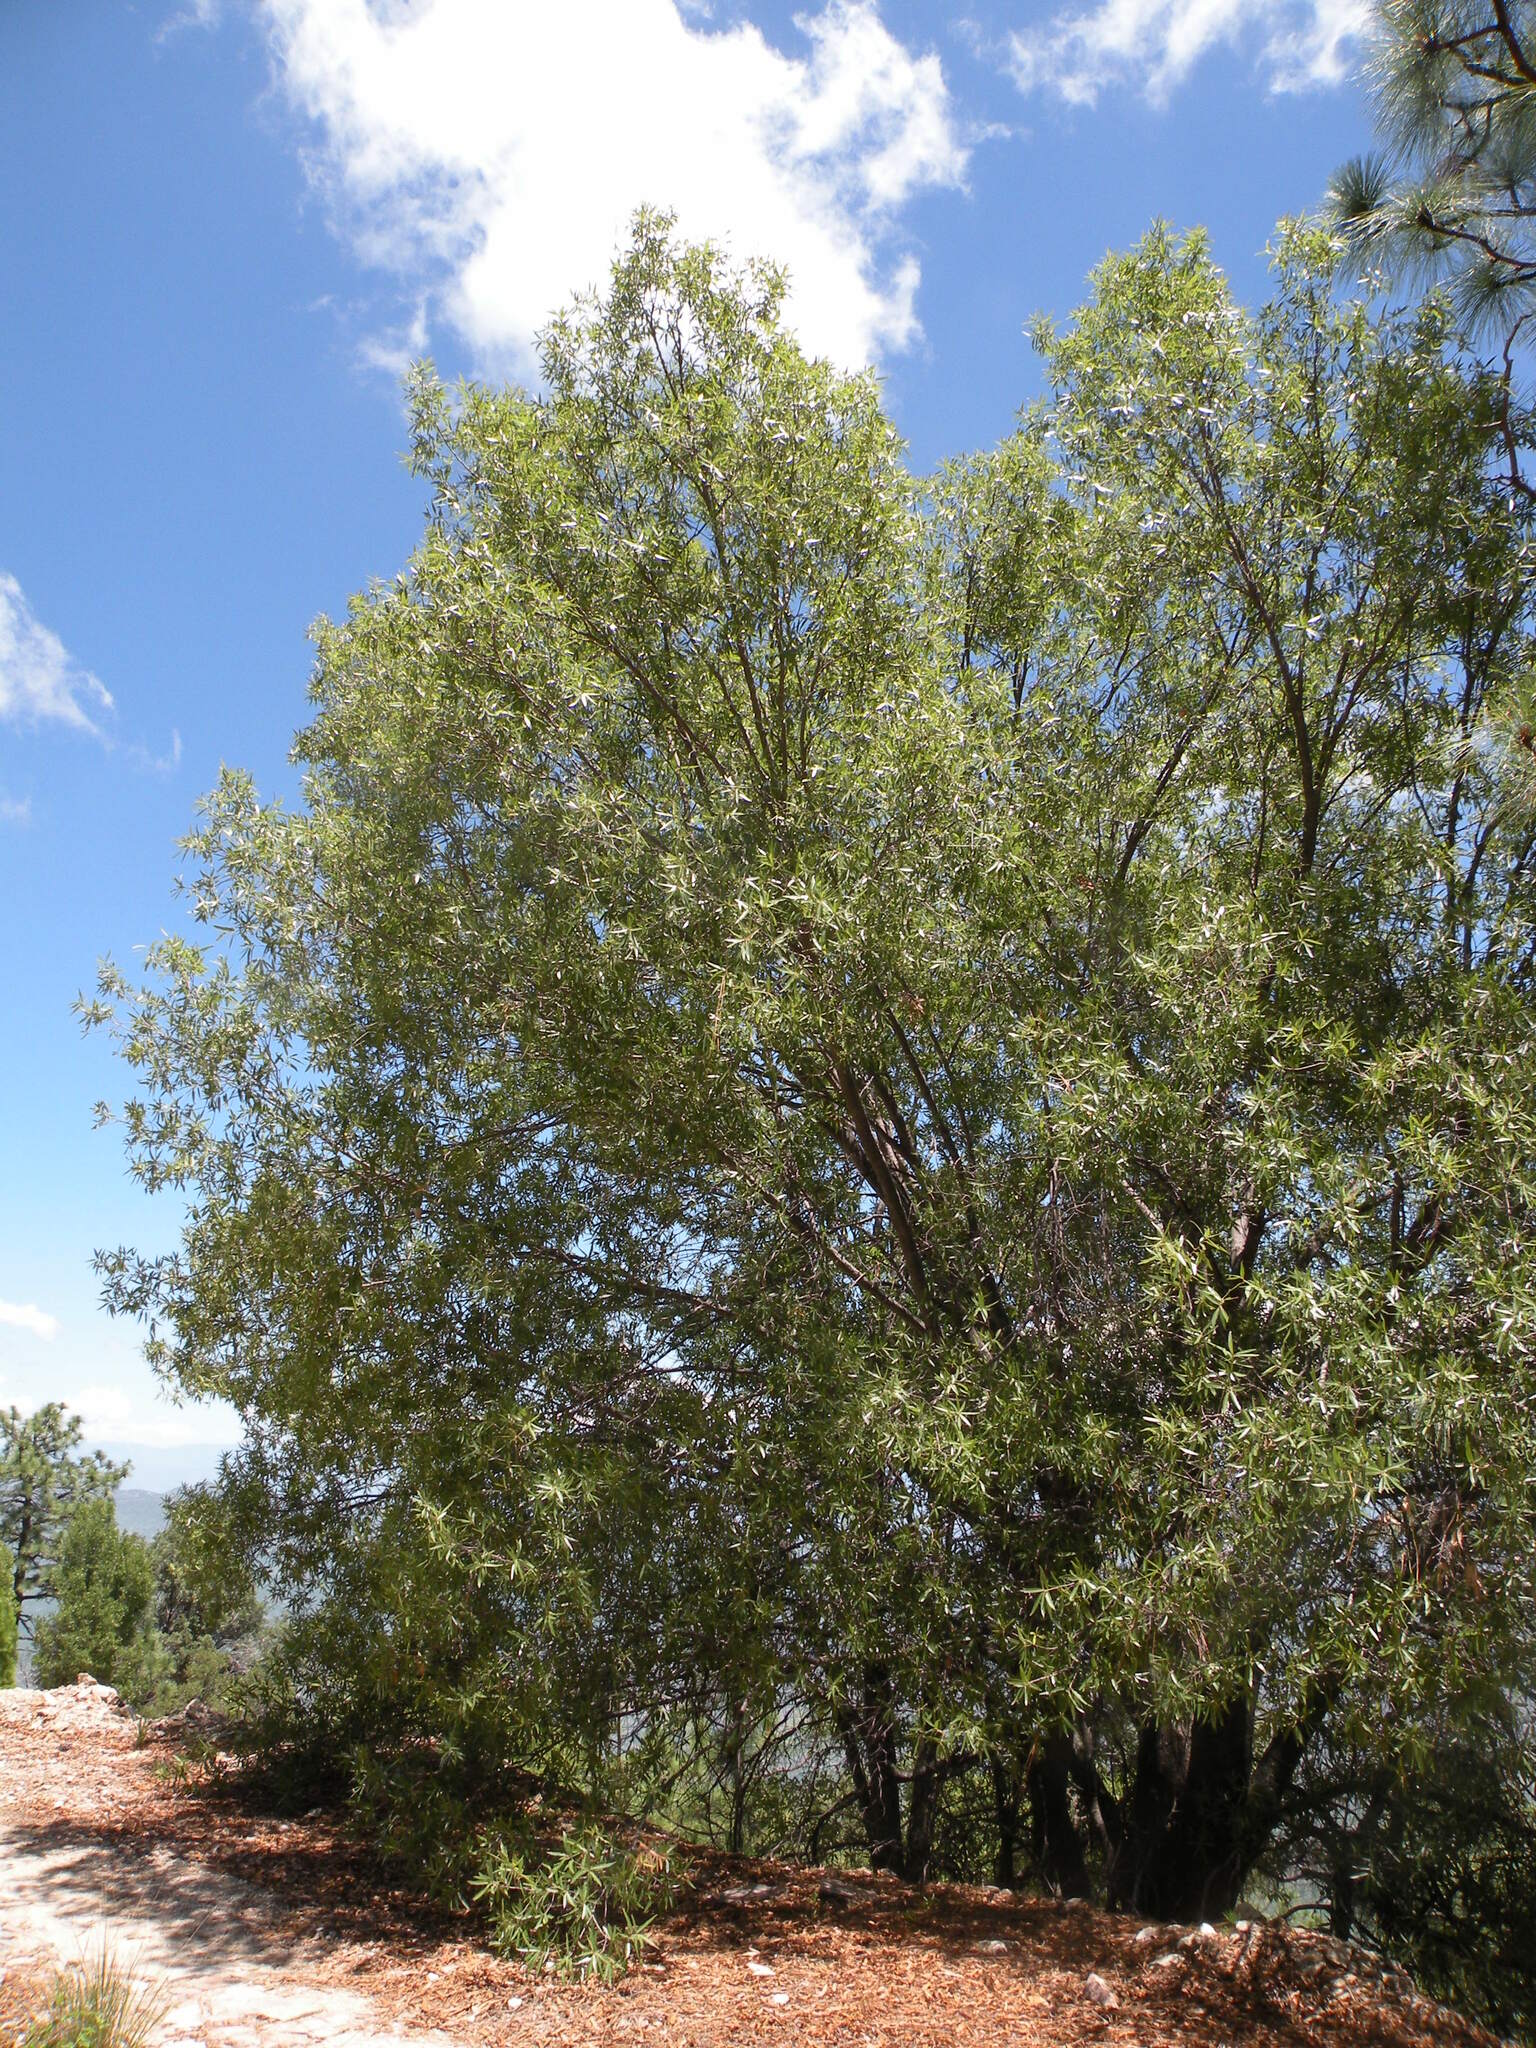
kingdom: Plantae
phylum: Tracheophyta
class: Magnoliopsida
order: Fagales
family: Fagaceae
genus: Quercus
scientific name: Quercus viminea
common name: Mexican willow oak
